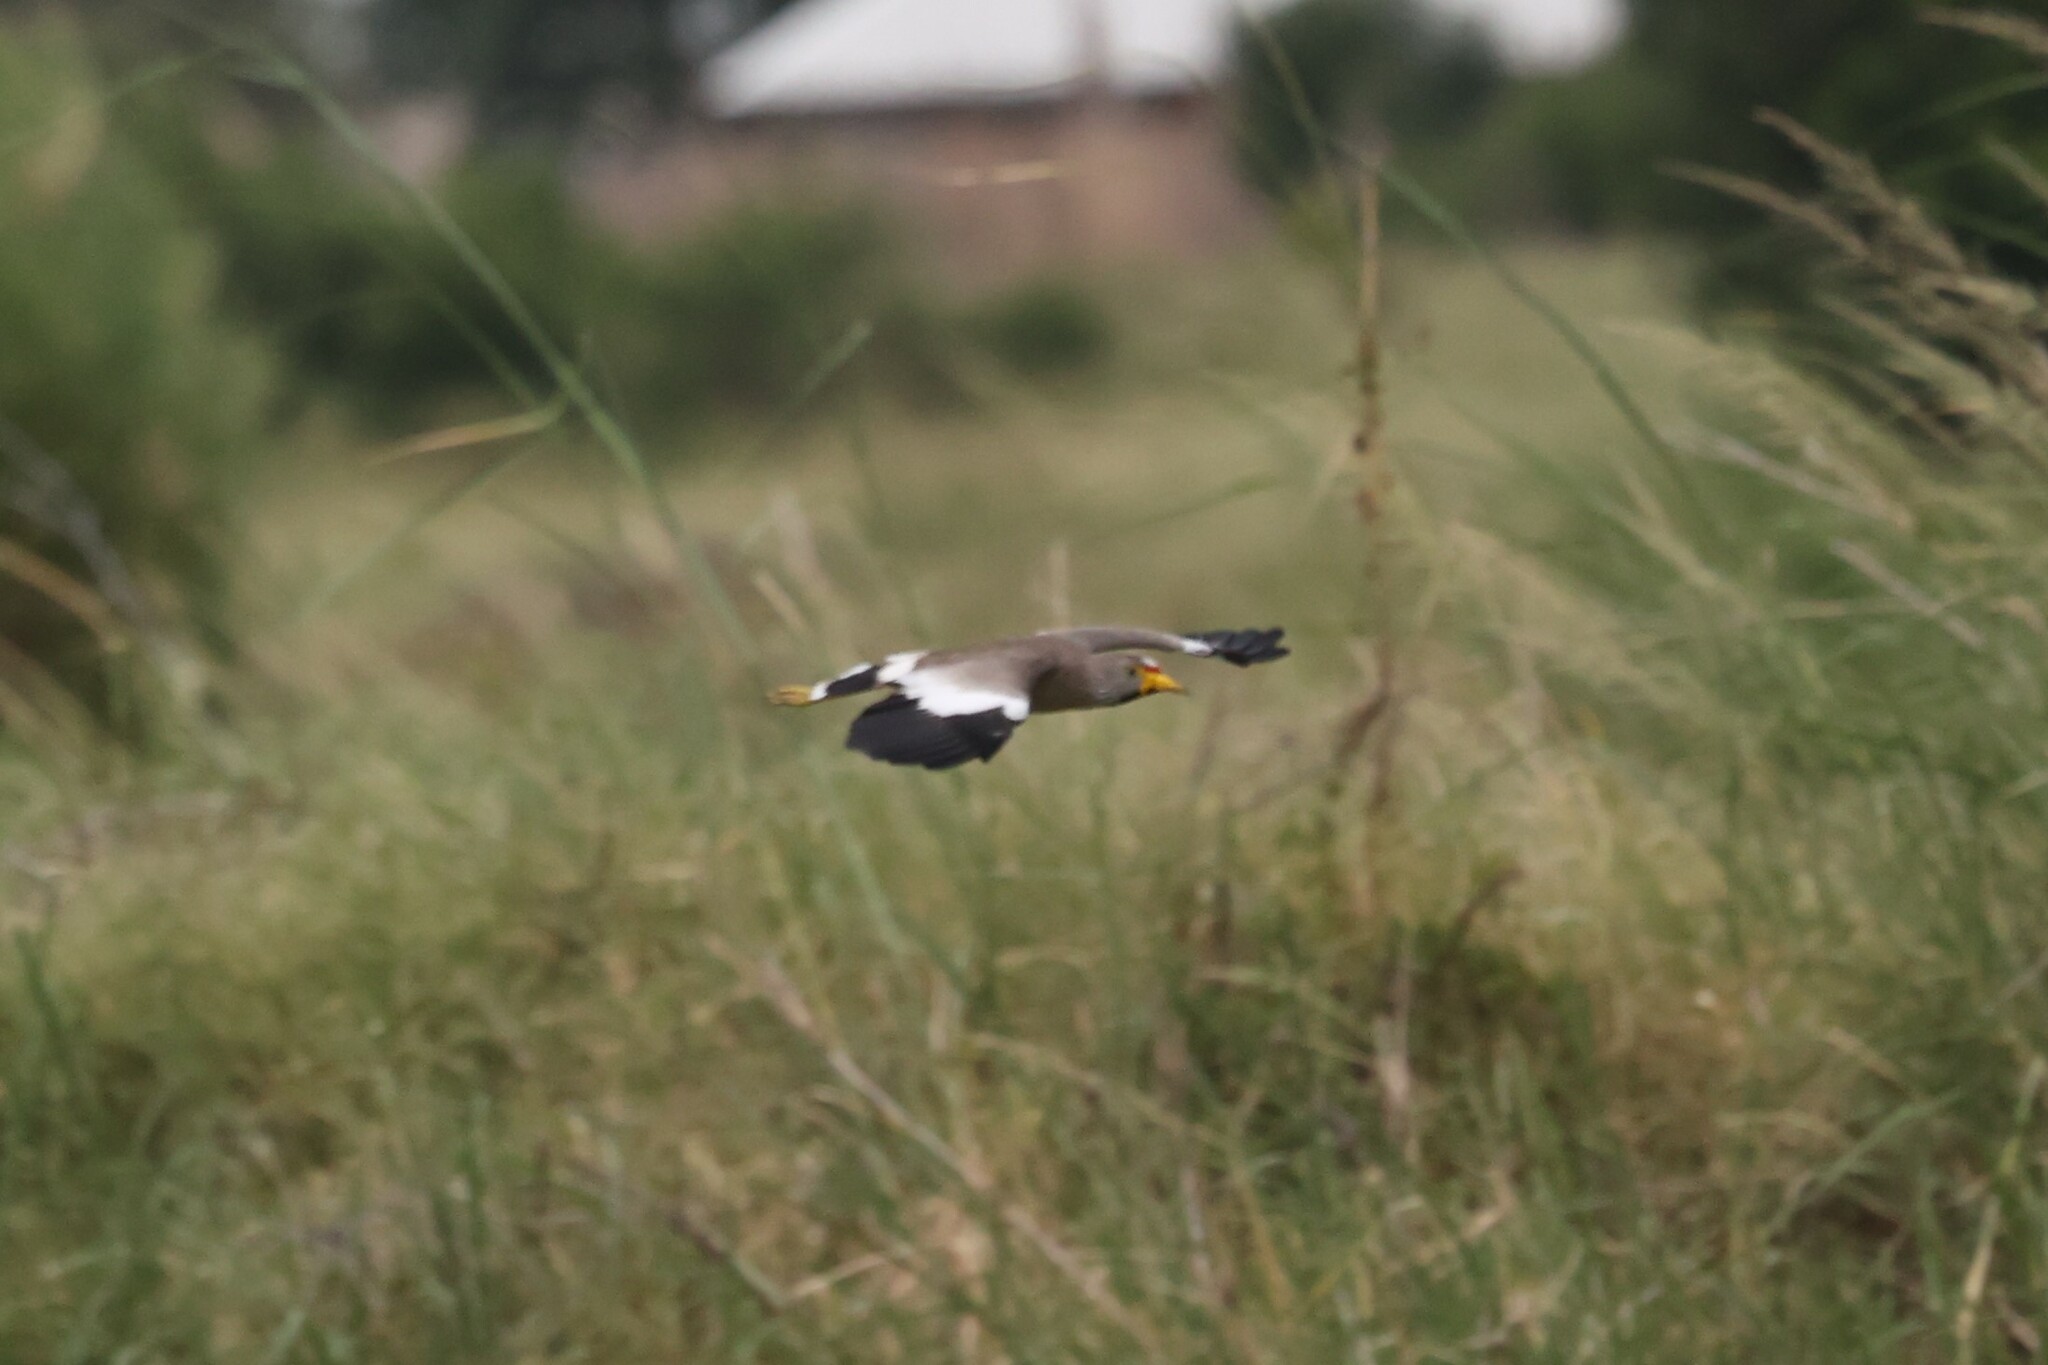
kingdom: Animalia
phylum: Chordata
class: Aves
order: Charadriiformes
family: Charadriidae
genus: Vanellus
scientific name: Vanellus senegallus
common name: African wattled lapwing
